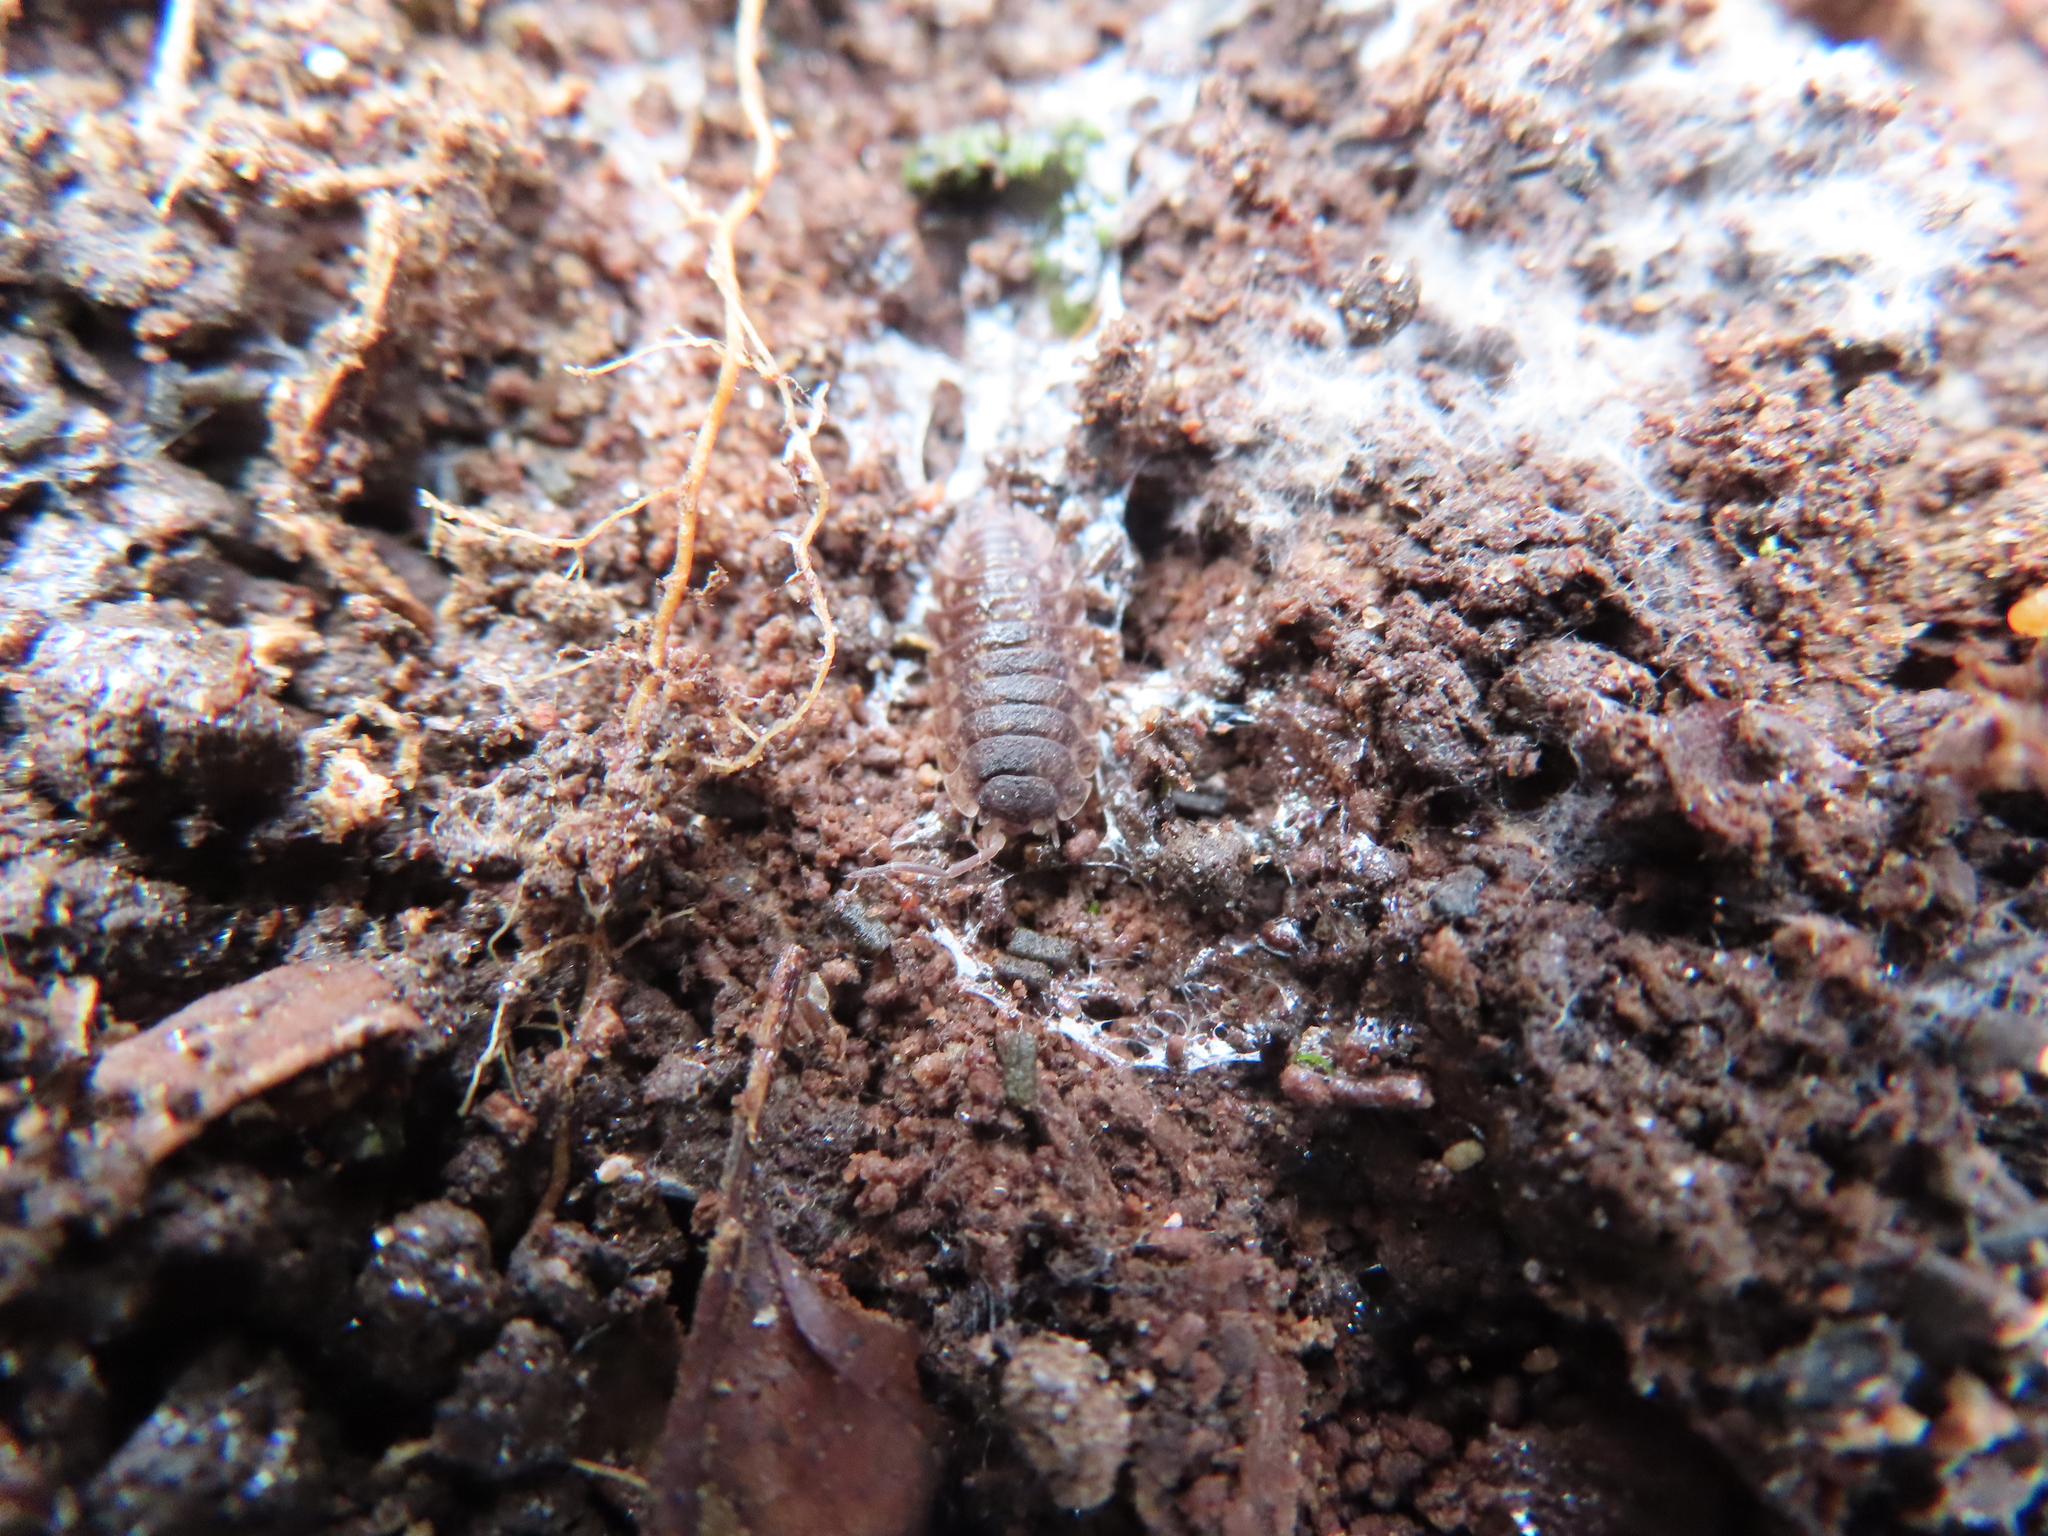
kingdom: Animalia
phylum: Arthropoda
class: Malacostraca
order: Isopoda
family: Oniscidae
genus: Oniscus
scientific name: Oniscus asellus
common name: Common shiny woodlouse
